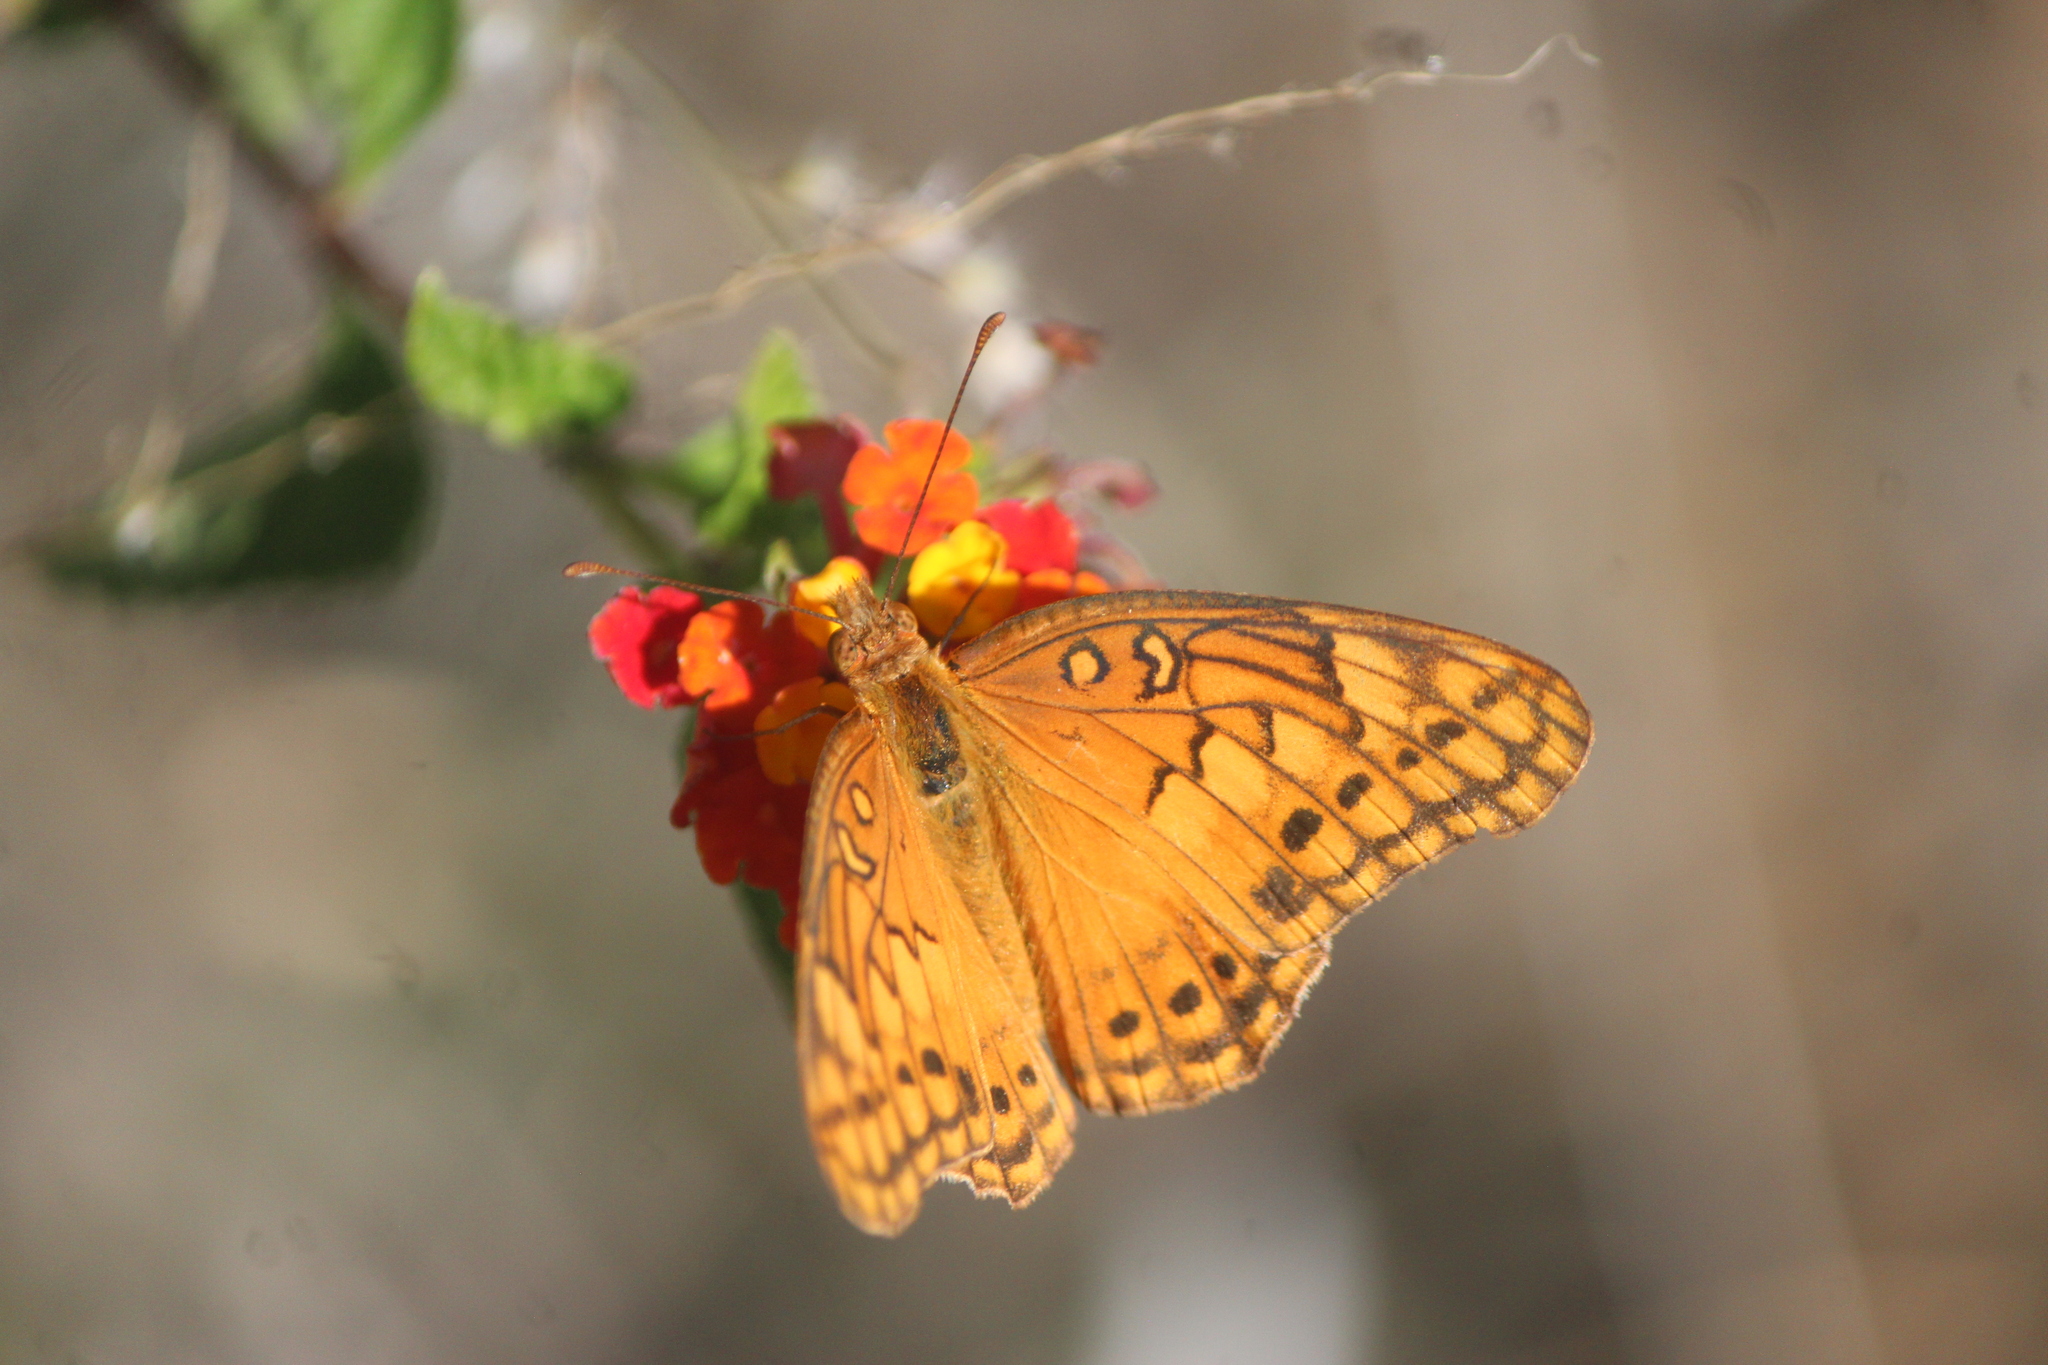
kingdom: Animalia
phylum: Arthropoda
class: Insecta
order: Lepidoptera
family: Nymphalidae
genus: Euptoieta
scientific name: Euptoieta hegesia
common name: Mexican fritillary
